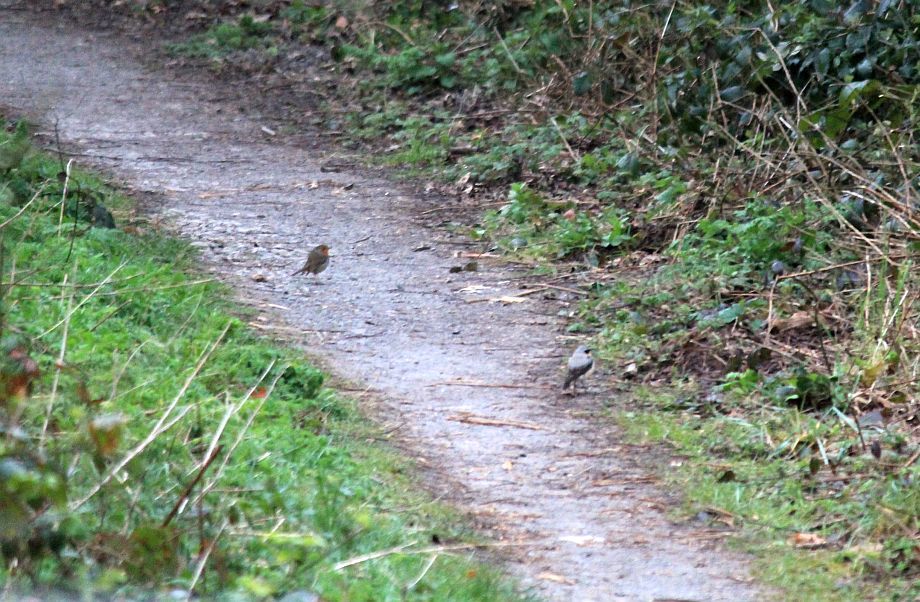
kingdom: Animalia
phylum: Chordata
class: Aves
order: Passeriformes
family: Muscicapidae
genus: Oenanthe
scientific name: Oenanthe oenanthe
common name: Northern wheatear
